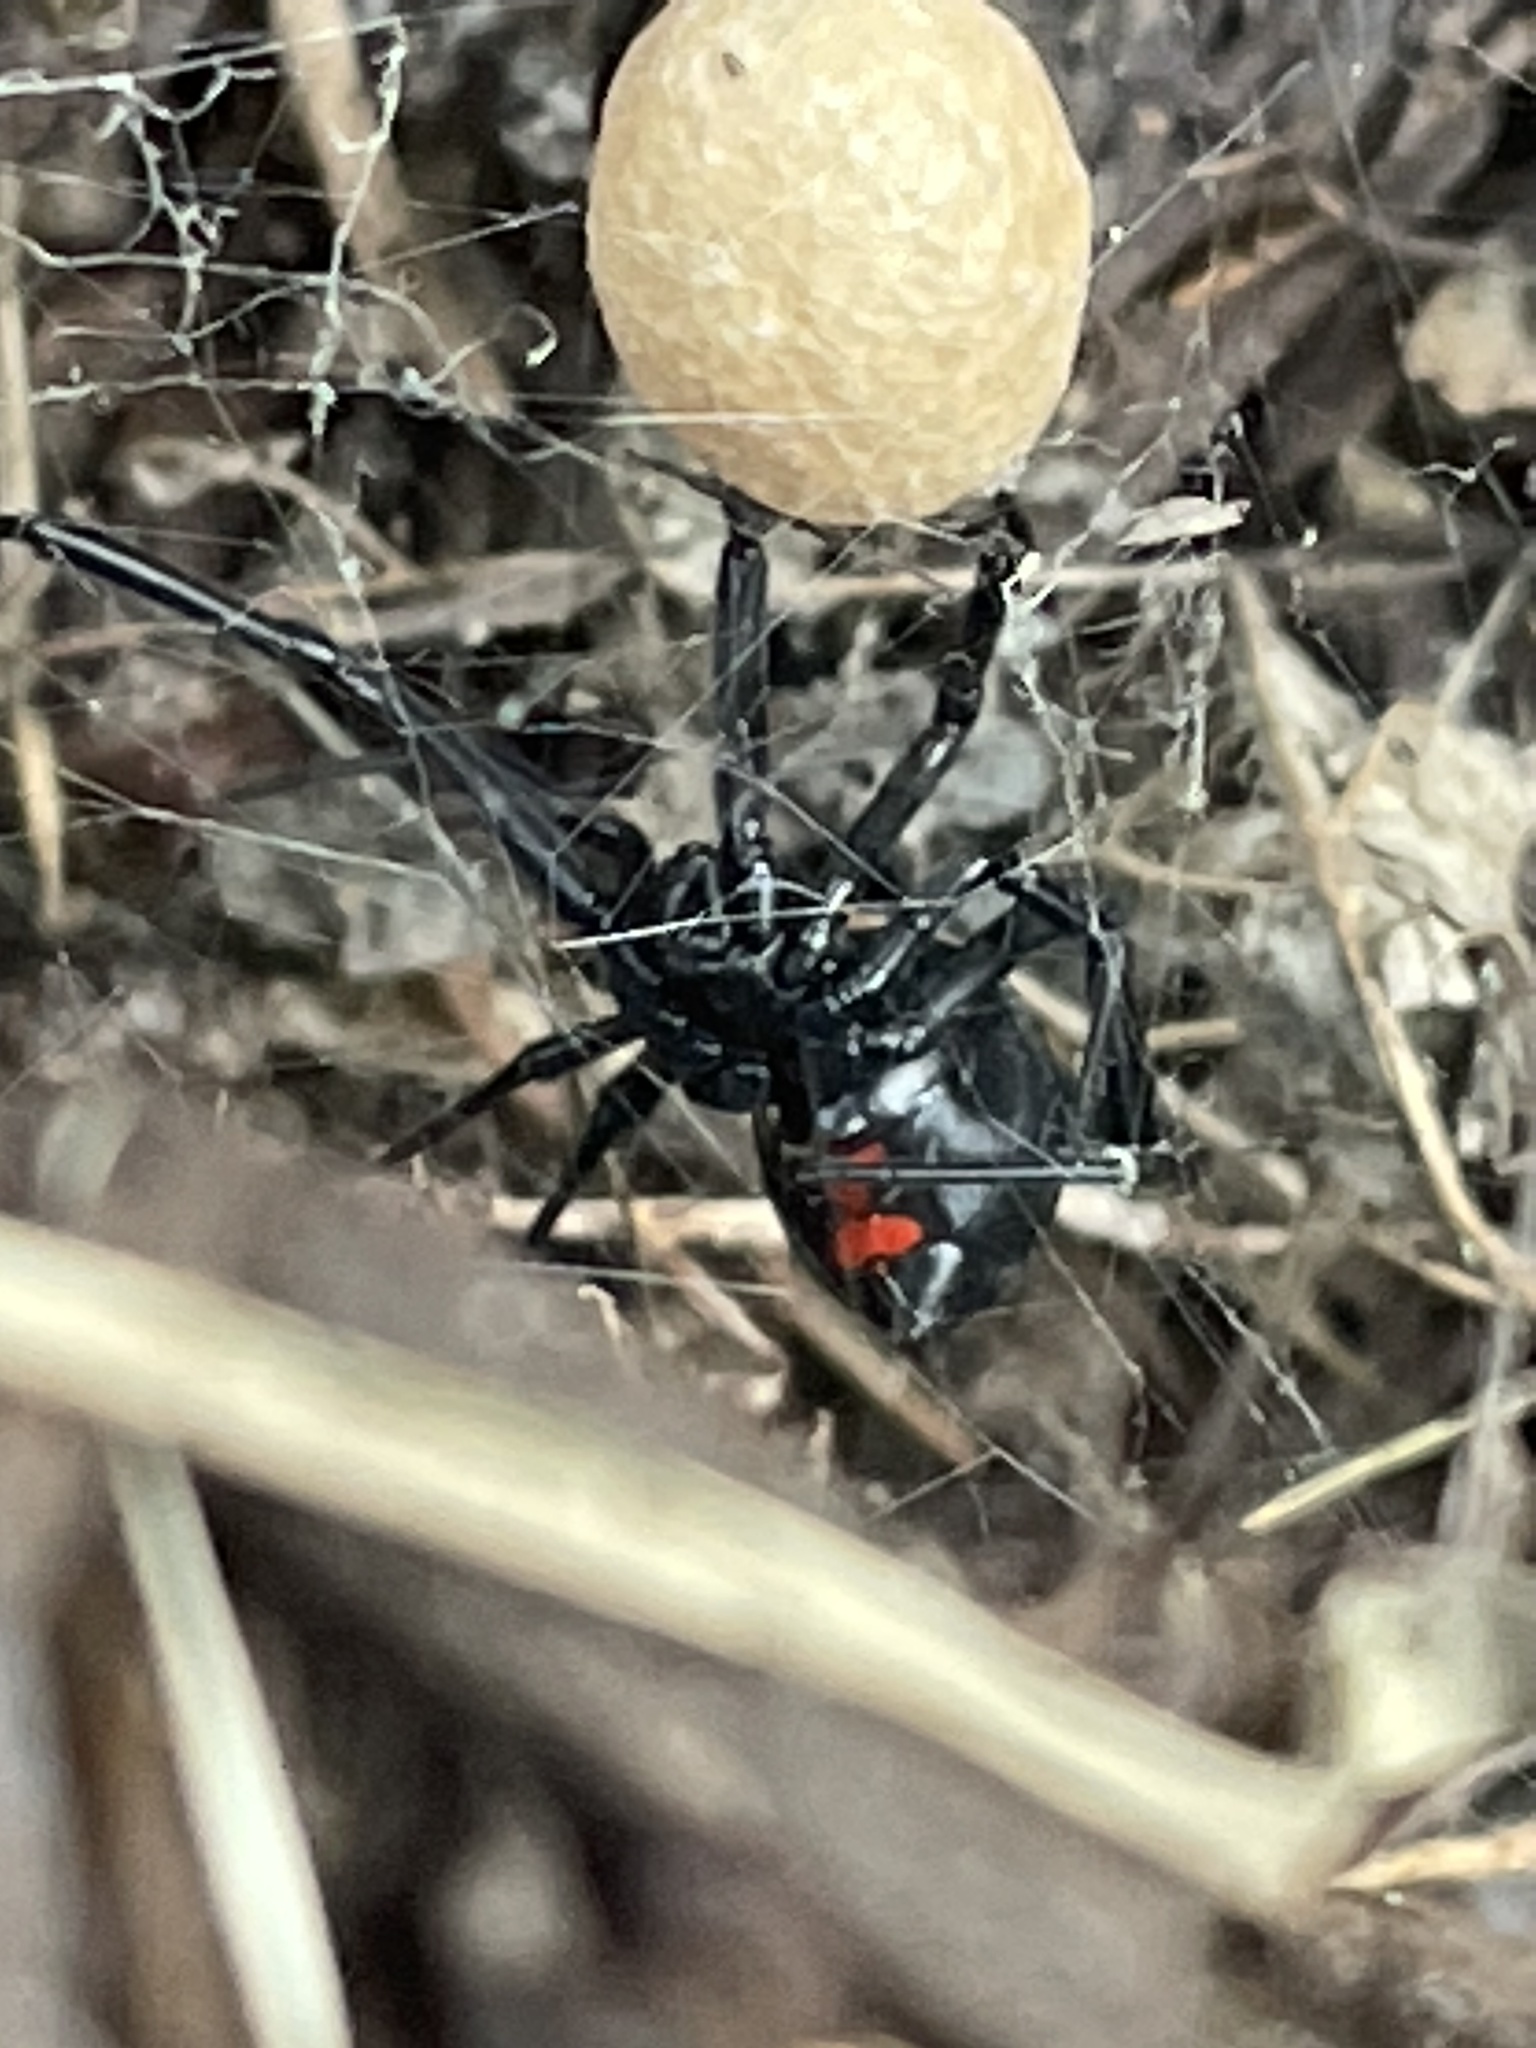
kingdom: Animalia
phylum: Arthropoda
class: Arachnida
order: Araneae
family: Theridiidae
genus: Latrodectus
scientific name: Latrodectus mactans
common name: Cobweb spiders
